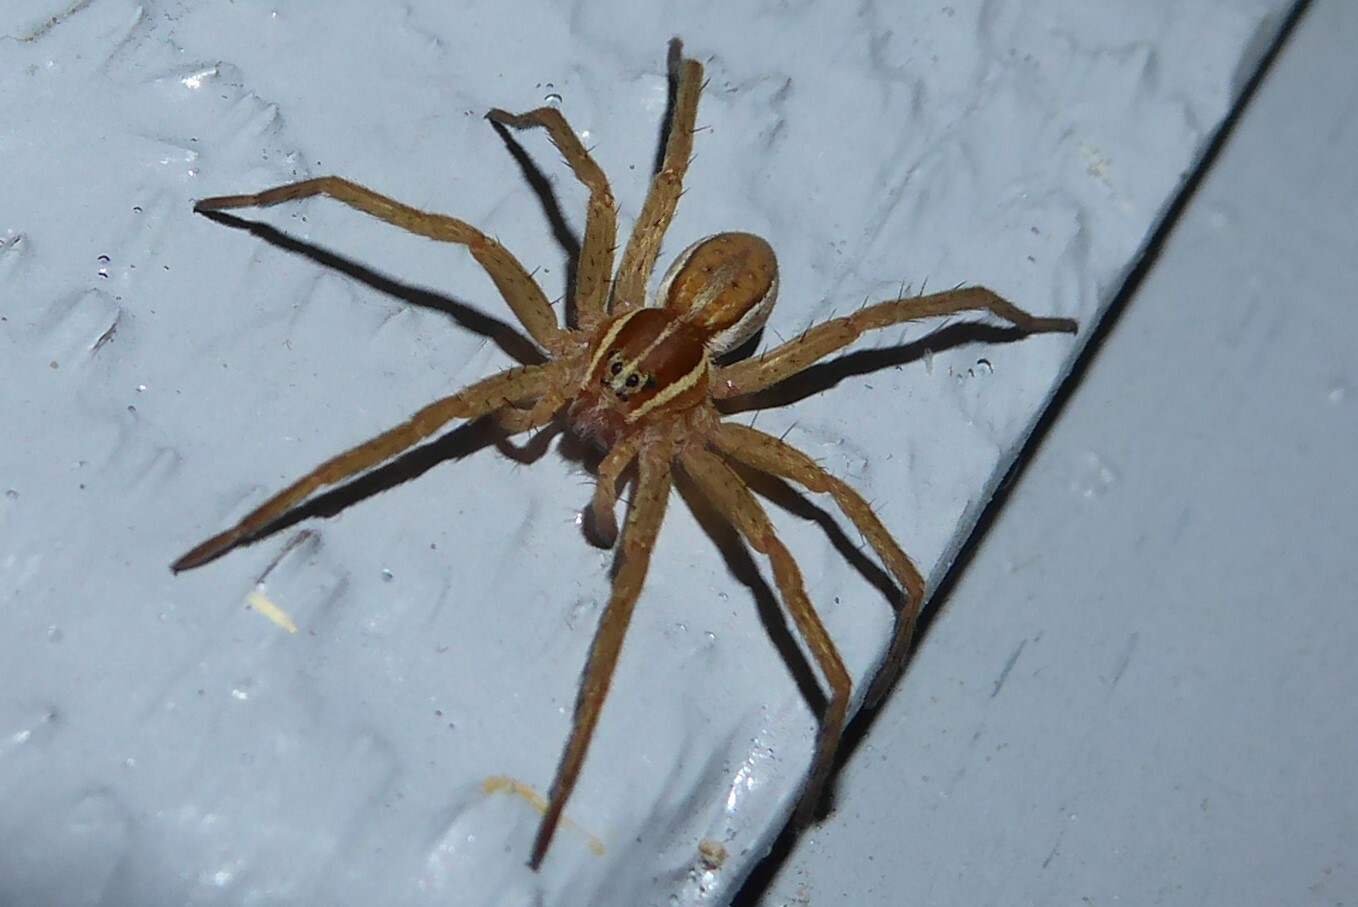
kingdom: Animalia
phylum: Arthropoda
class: Arachnida
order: Araneae
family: Pisauridae
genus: Dolomedes
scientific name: Dolomedes minor
